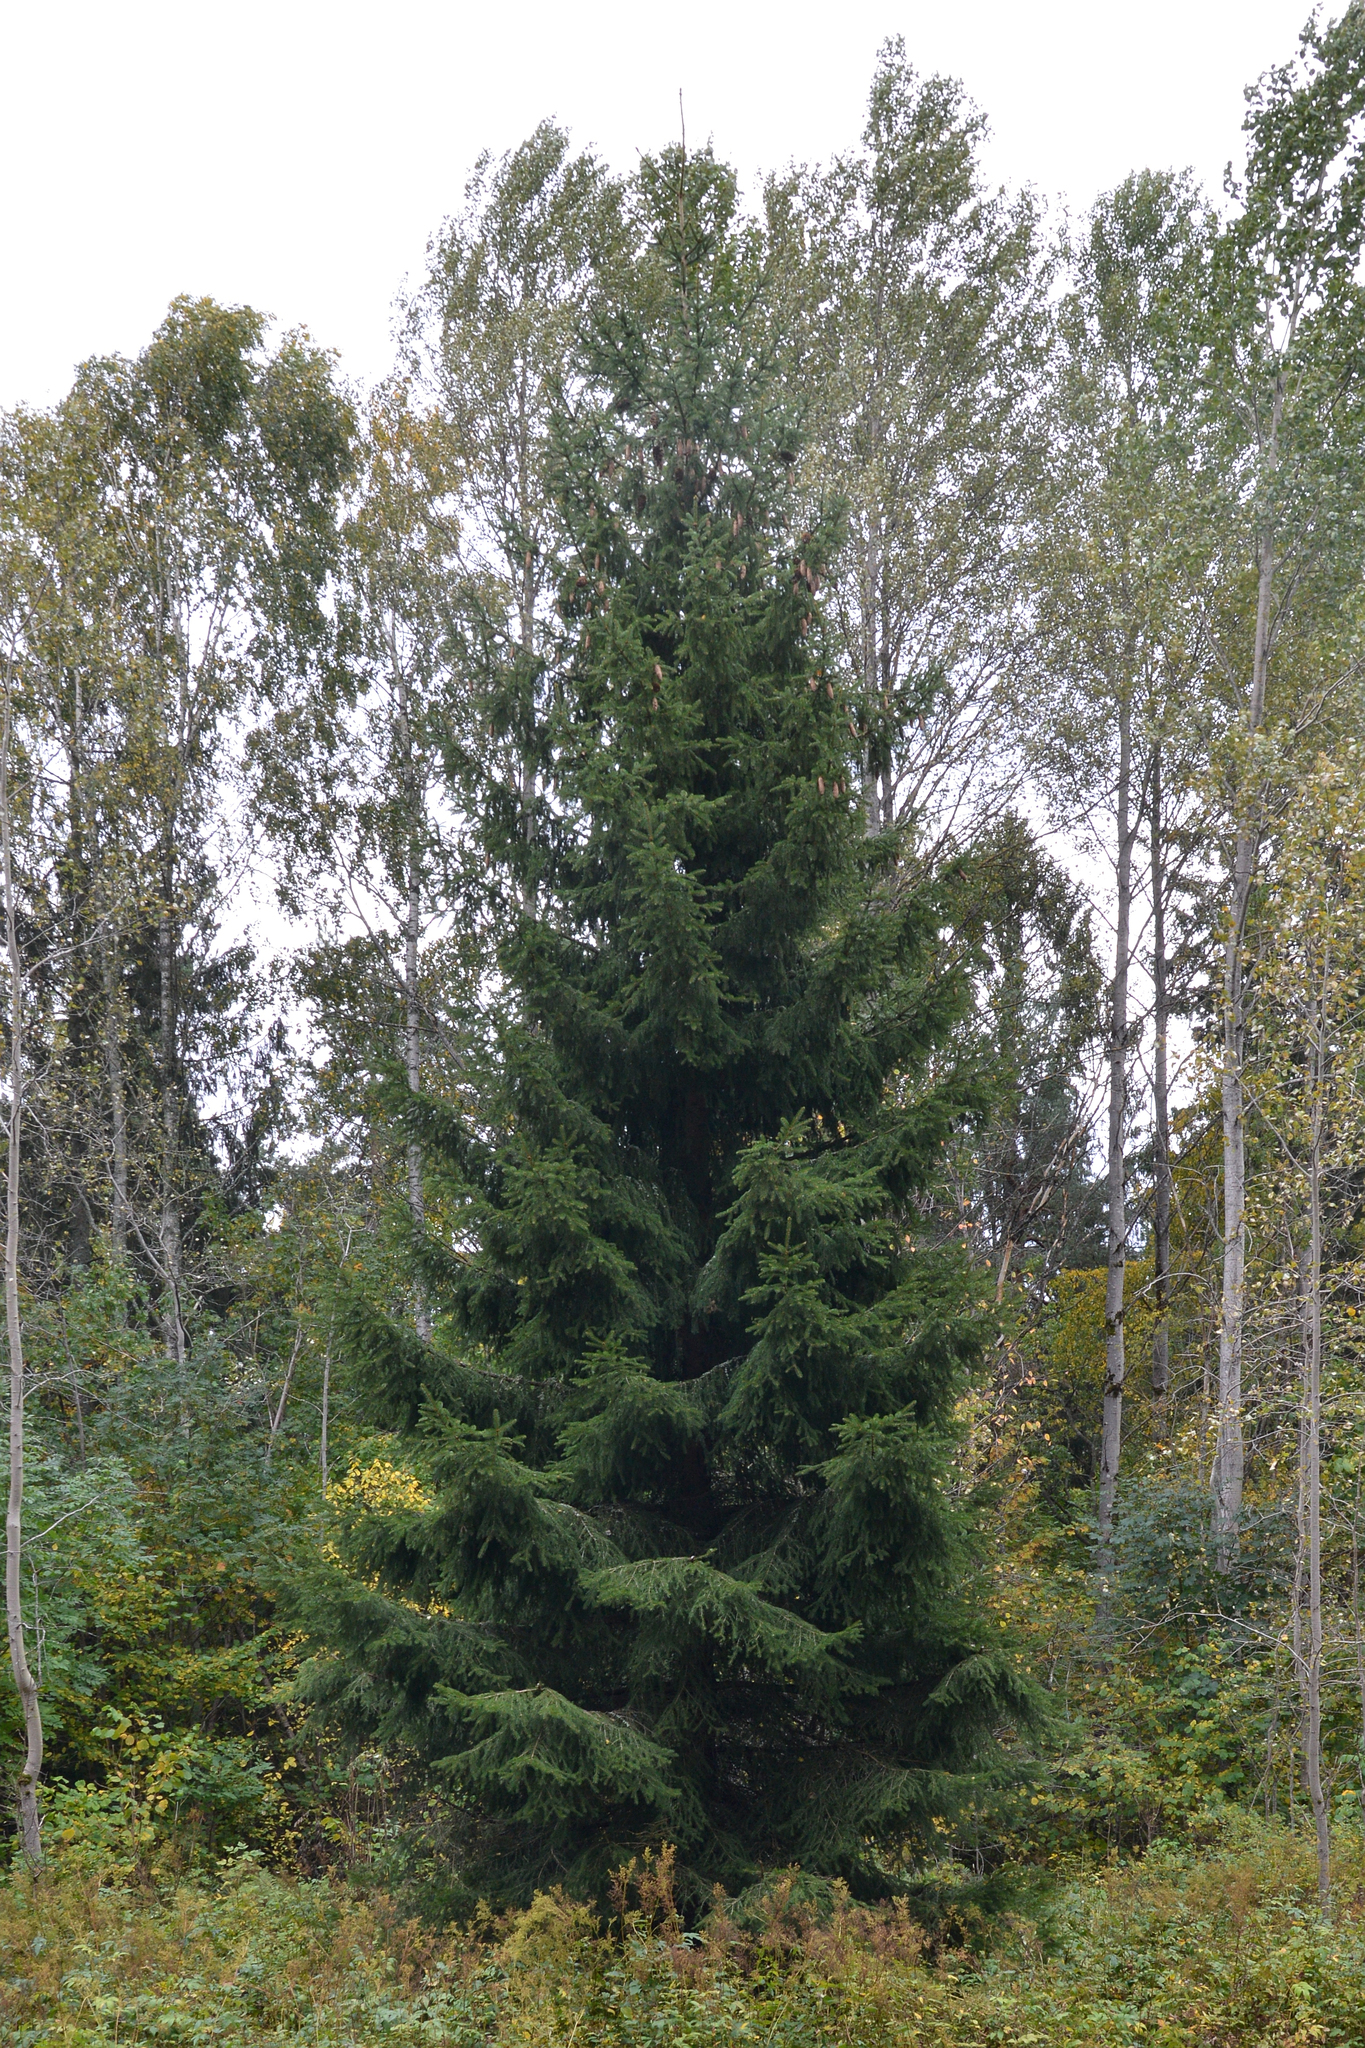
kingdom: Plantae
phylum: Tracheophyta
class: Pinopsida
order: Pinales
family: Pinaceae
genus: Picea
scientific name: Picea abies
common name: Norway spruce
